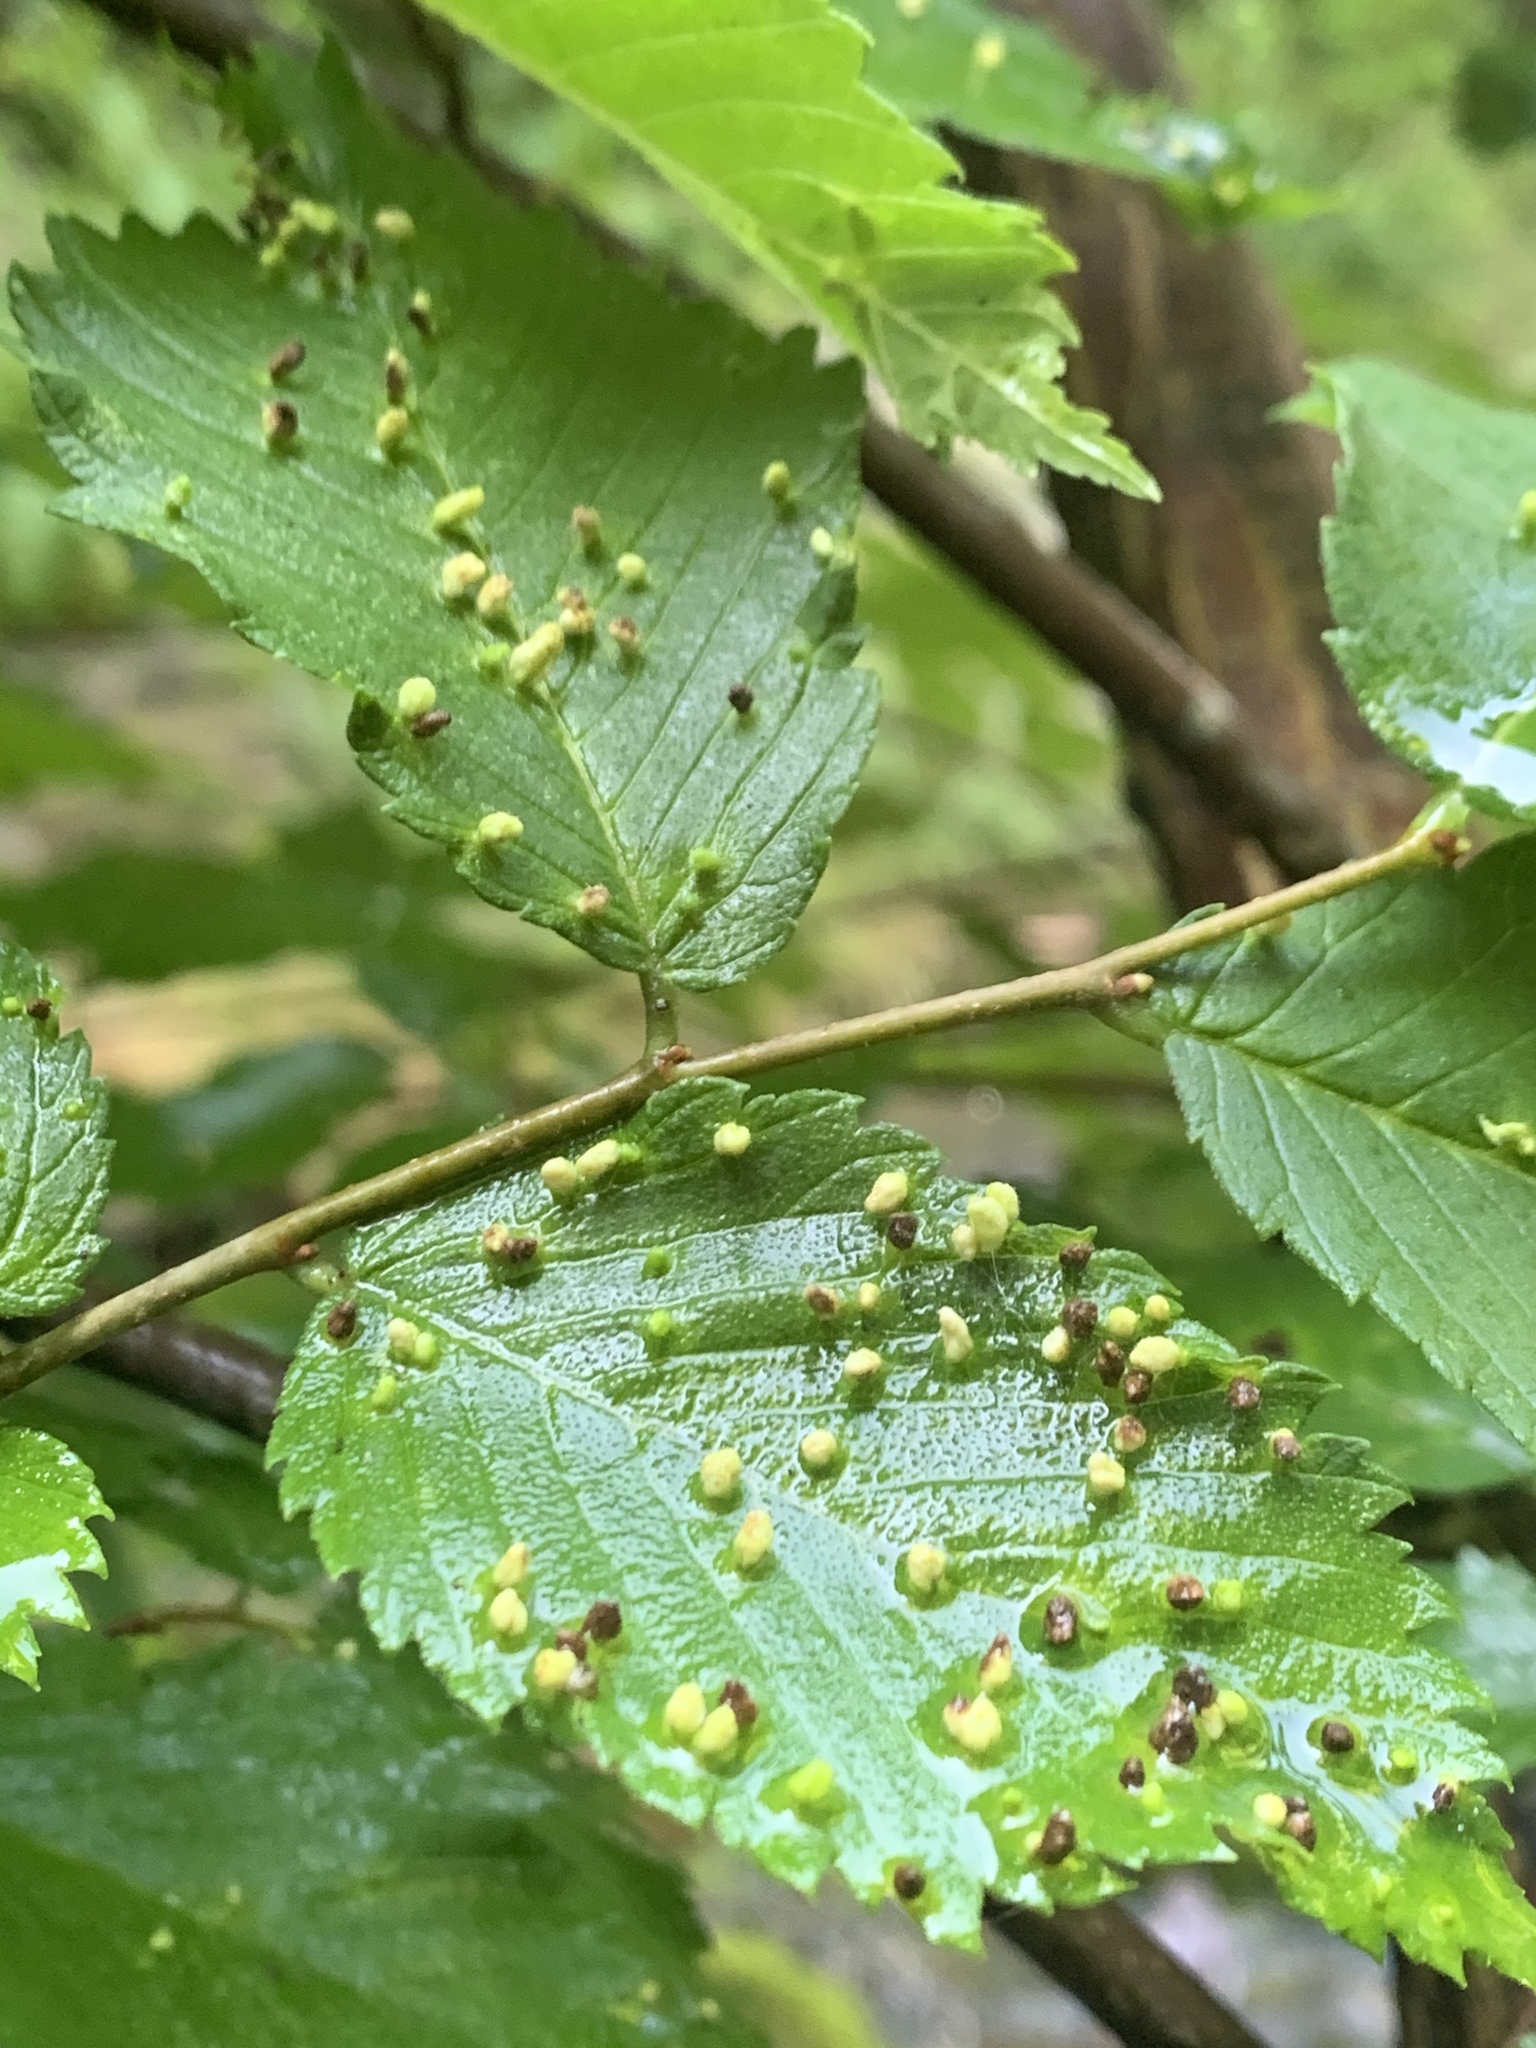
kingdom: Animalia
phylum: Arthropoda
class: Arachnida
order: Trombidiformes
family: Eriophyidae
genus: Aceria
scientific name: Aceria
